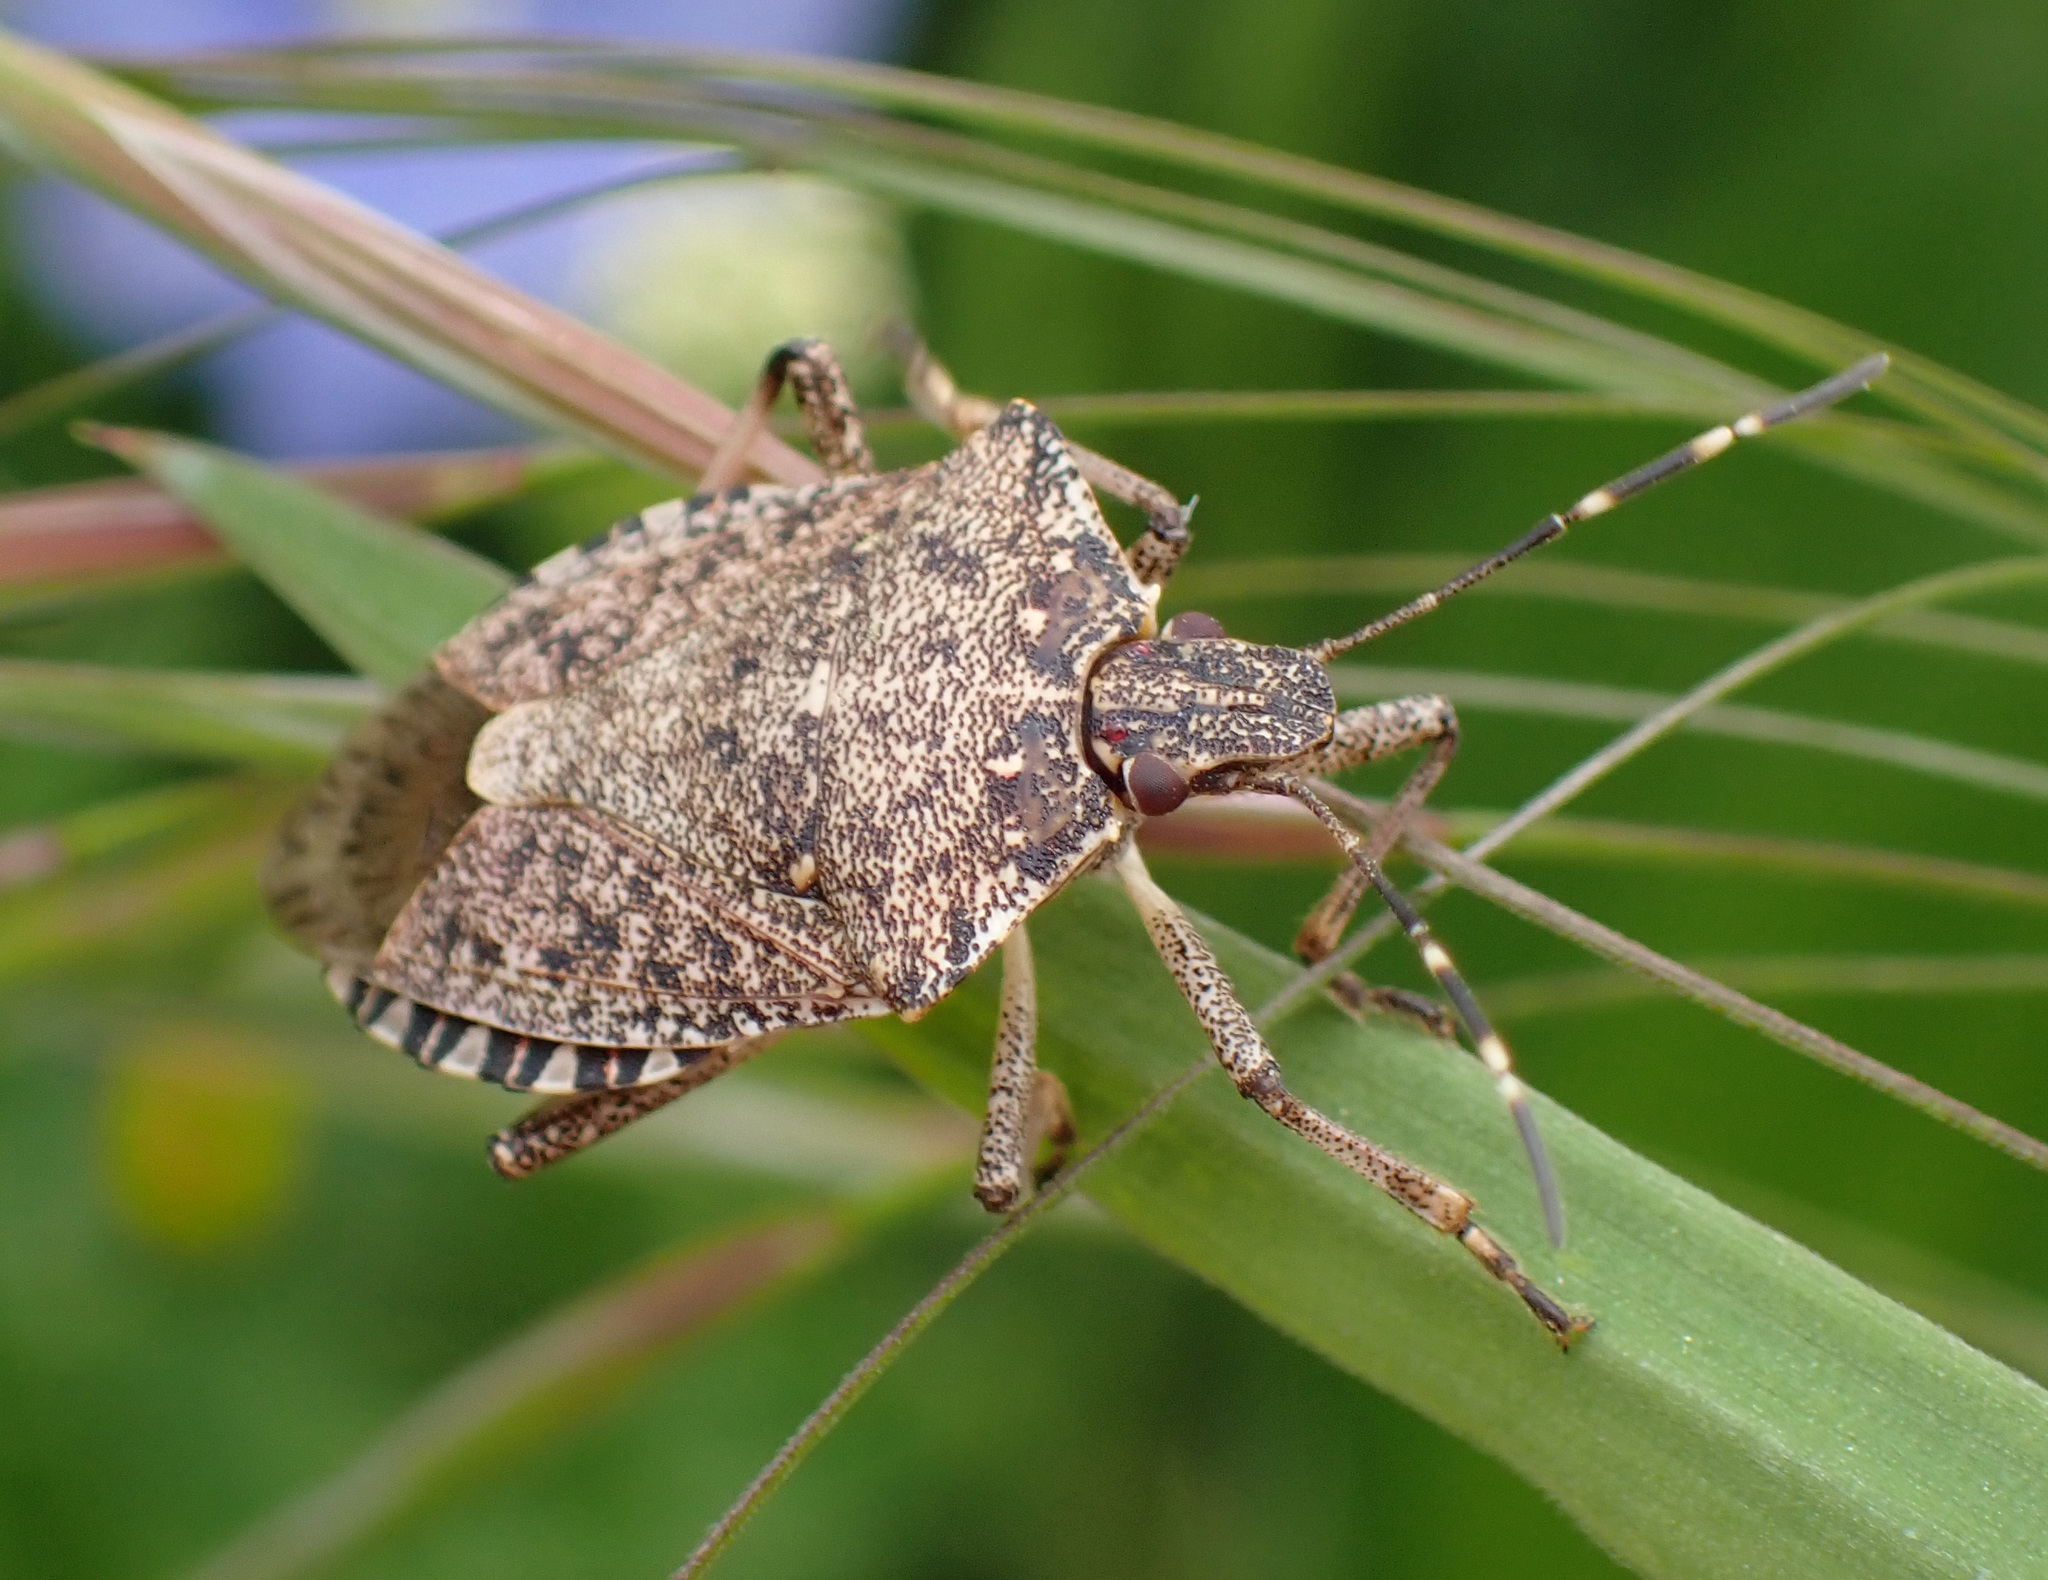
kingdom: Animalia
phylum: Arthropoda
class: Insecta
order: Hemiptera
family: Pentatomidae
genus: Halyomorpha
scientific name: Halyomorpha halys
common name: Brown marmorated stink bug
